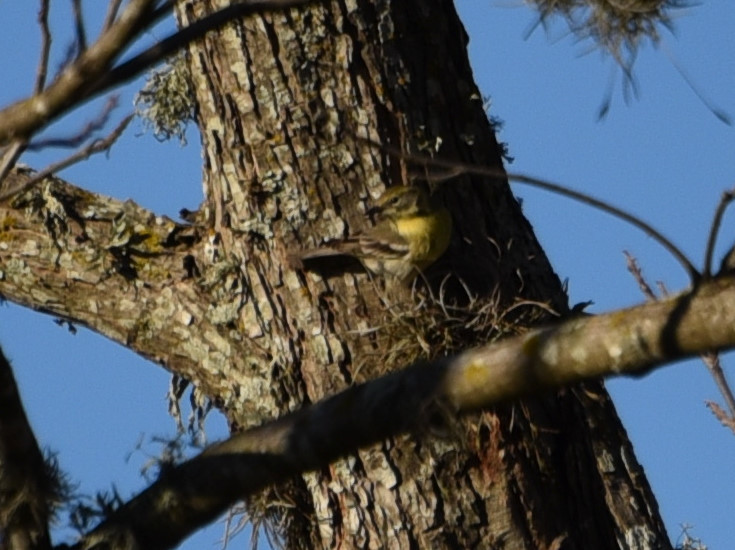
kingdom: Animalia
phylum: Chordata
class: Aves
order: Passeriformes
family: Parulidae
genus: Setophaga
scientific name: Setophaga pinus
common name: Pine warbler
